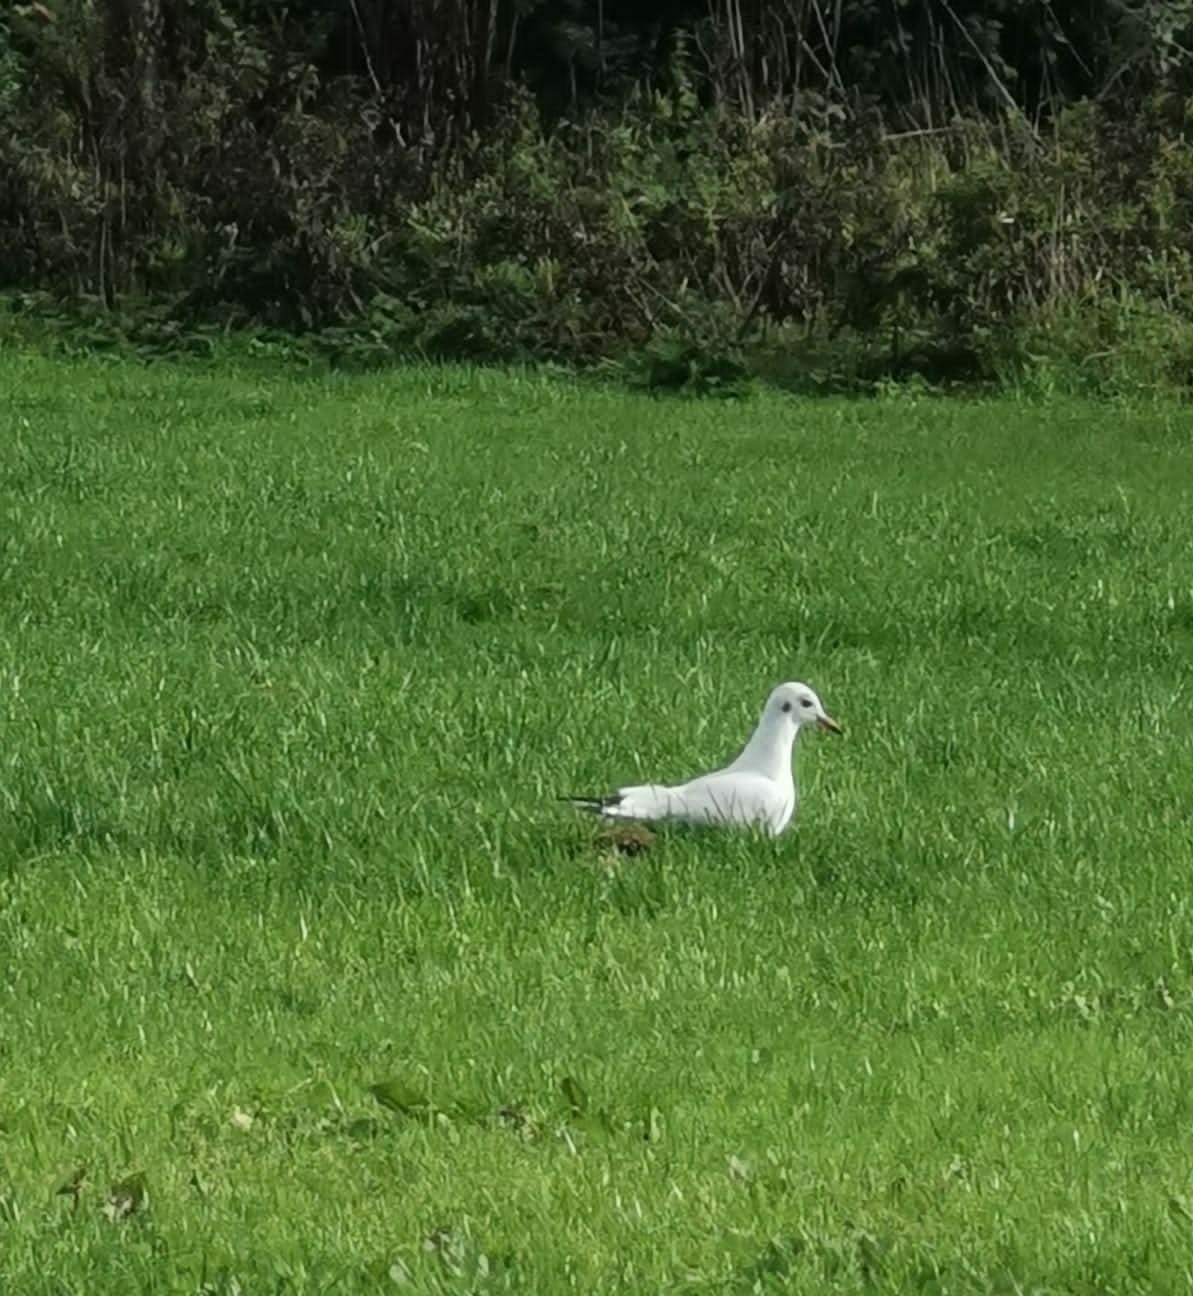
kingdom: Animalia
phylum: Chordata
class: Aves
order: Charadriiformes
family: Laridae
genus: Chroicocephalus
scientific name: Chroicocephalus ridibundus
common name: Black-headed gull
